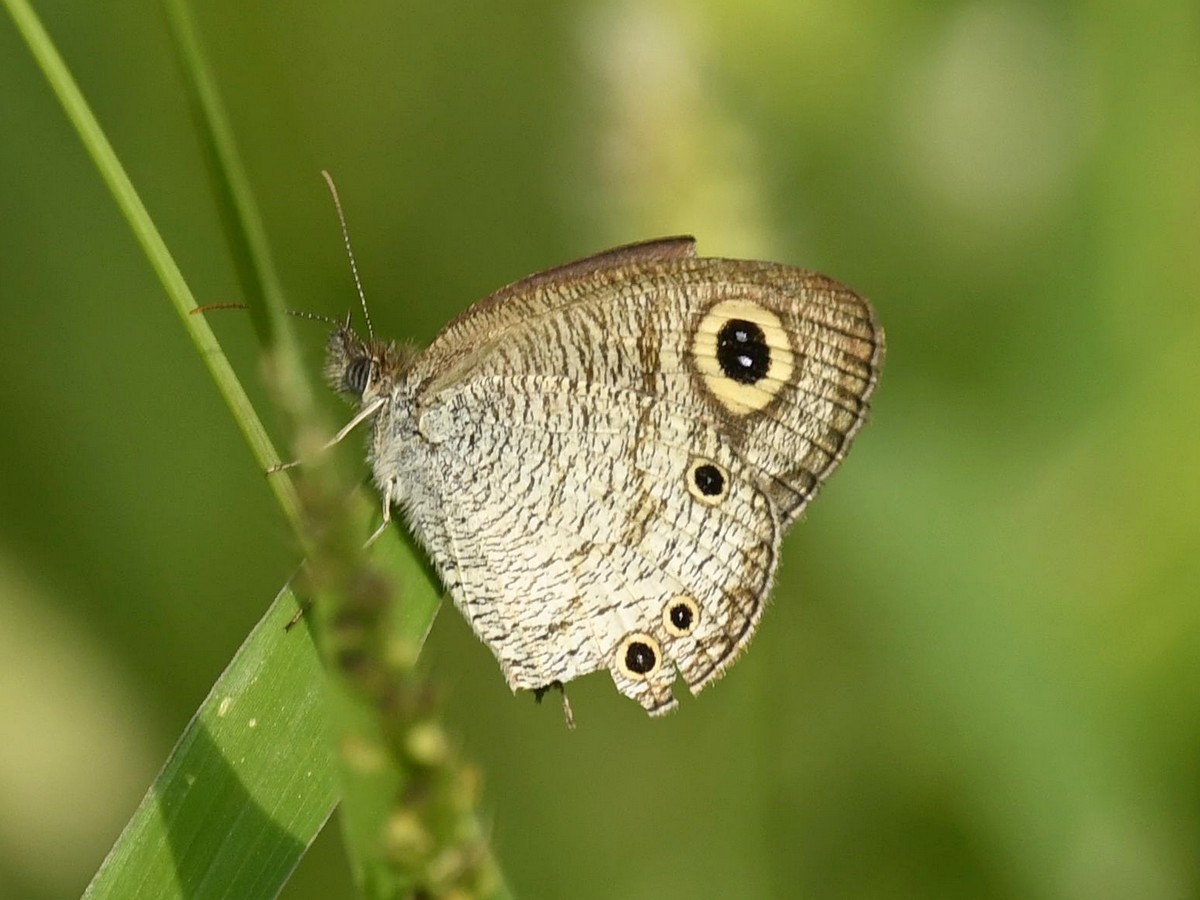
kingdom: Animalia
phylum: Arthropoda
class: Insecta
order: Lepidoptera
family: Nymphalidae
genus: Ypthima
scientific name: Ypthima huebneri
